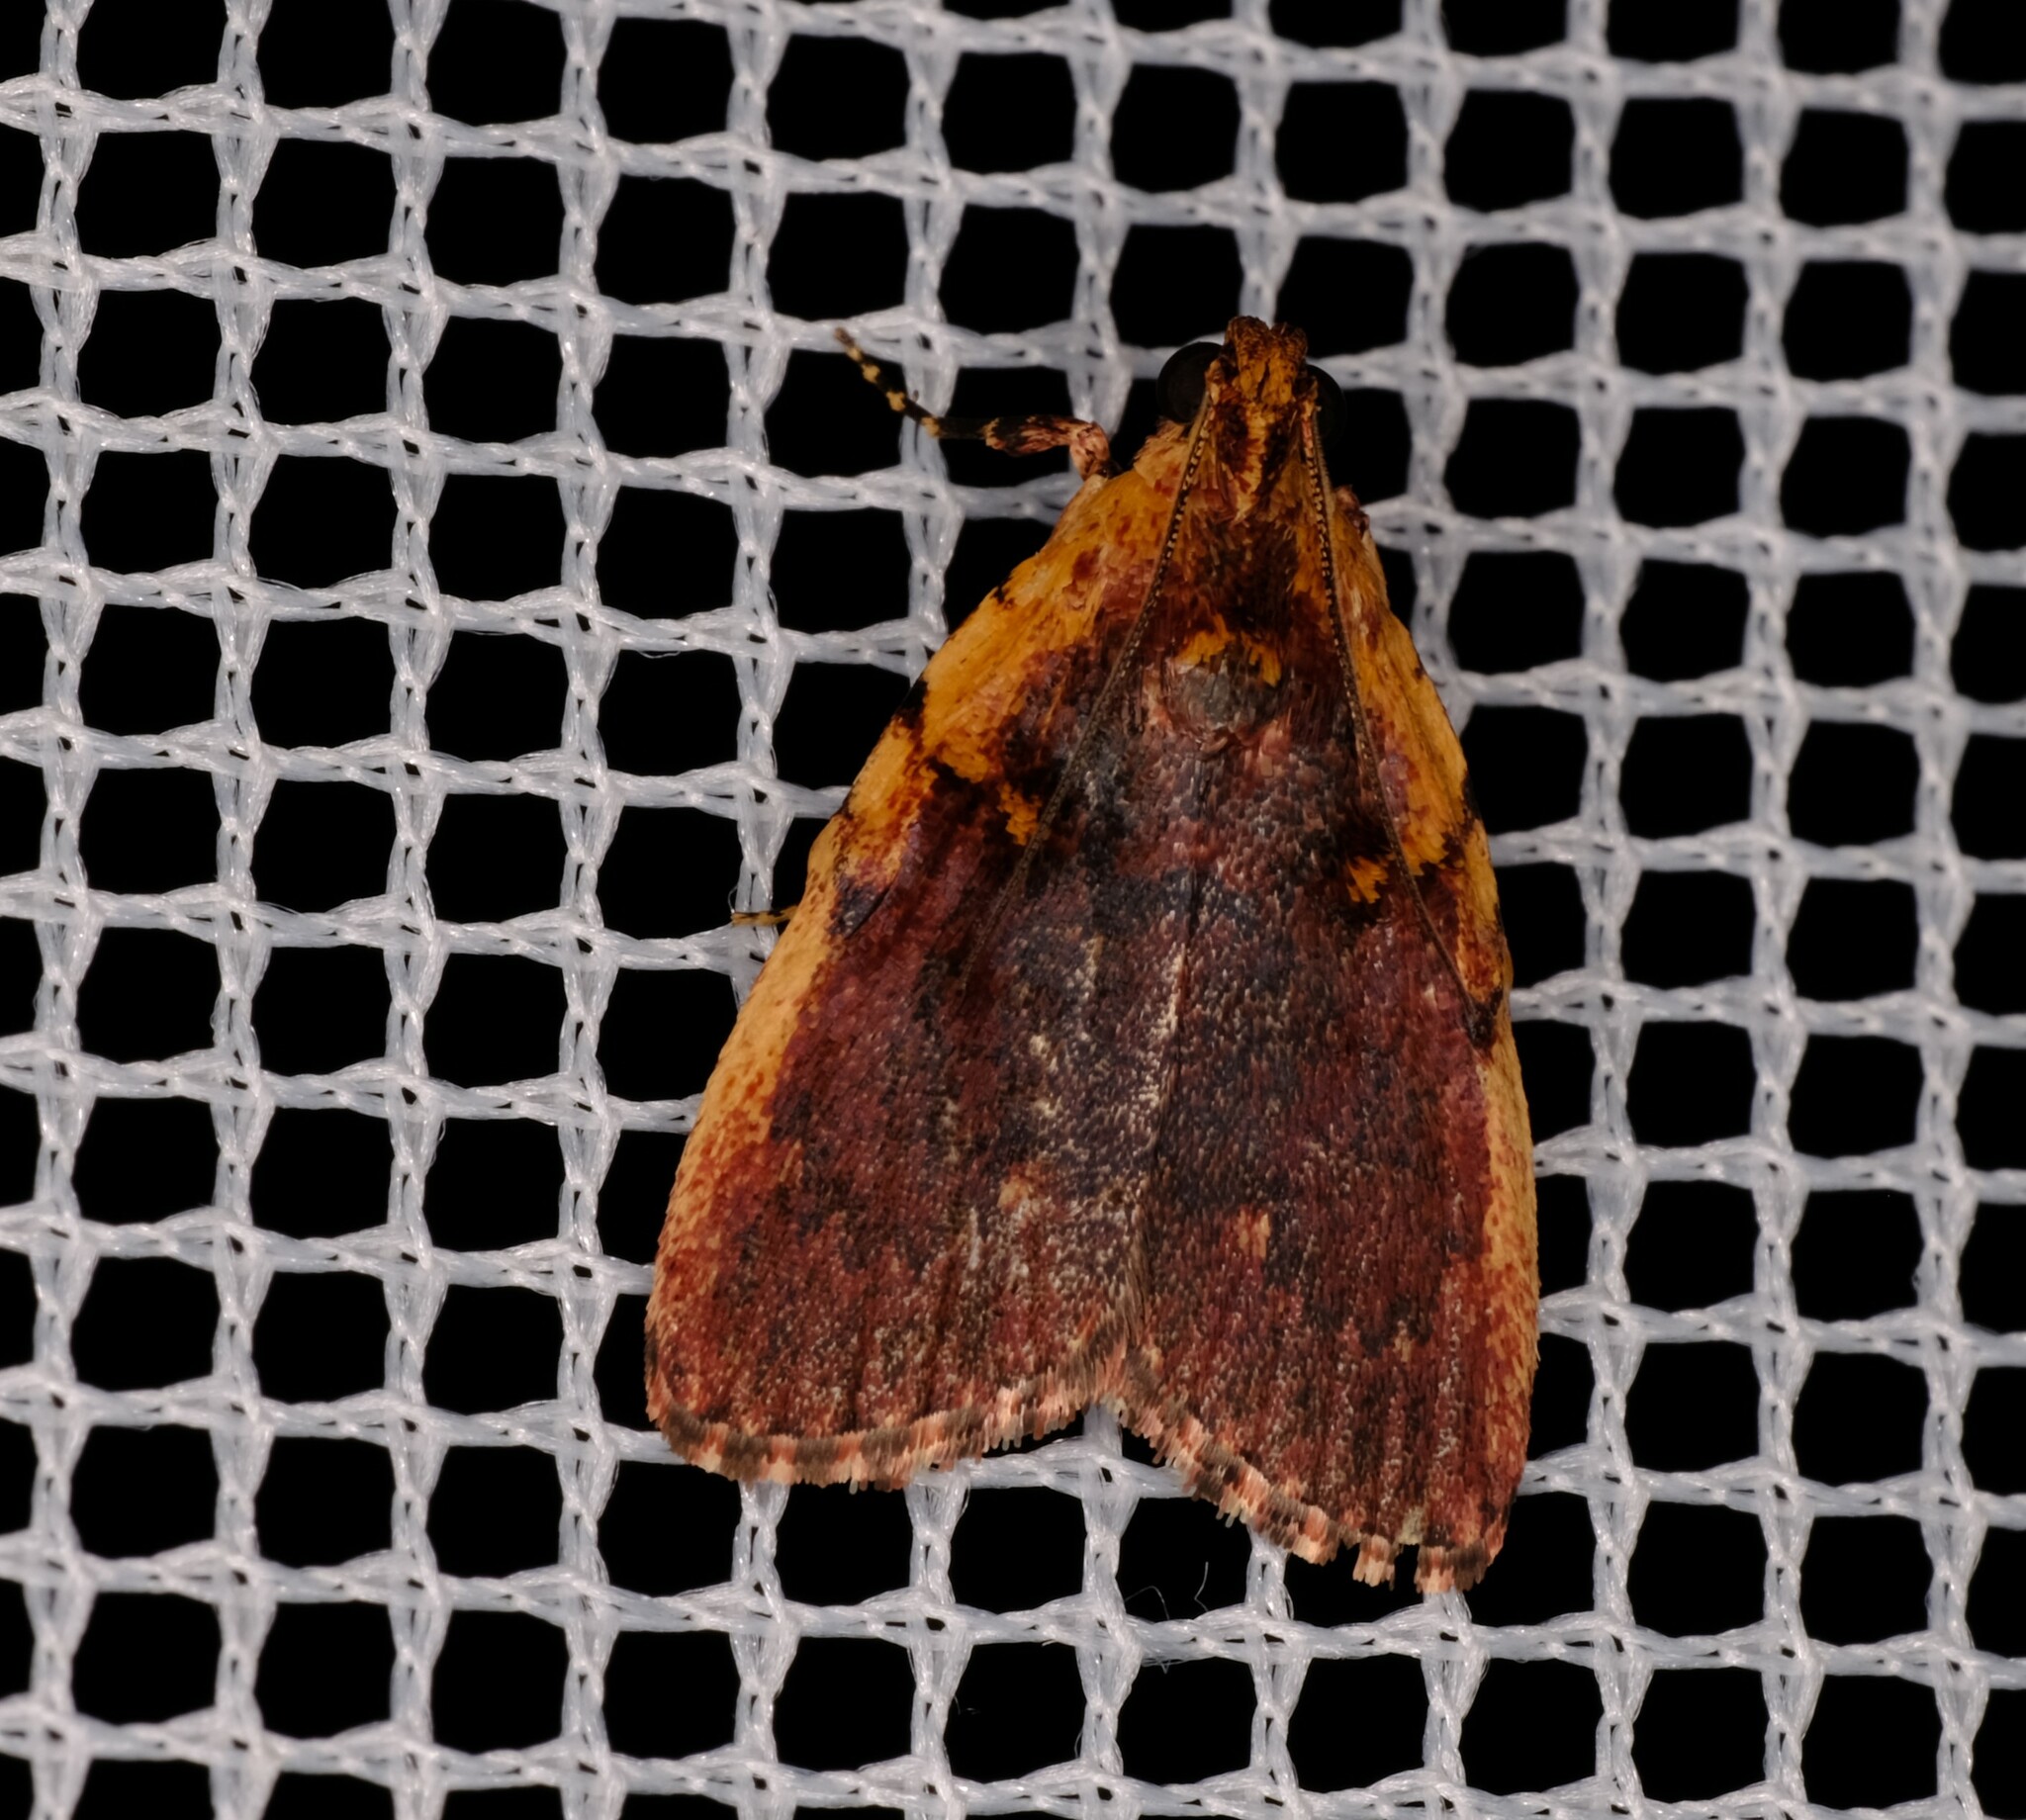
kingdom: Animalia
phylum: Arthropoda
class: Insecta
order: Lepidoptera
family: Pyralidae
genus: Araeopaschia
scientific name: Araeopaschia
